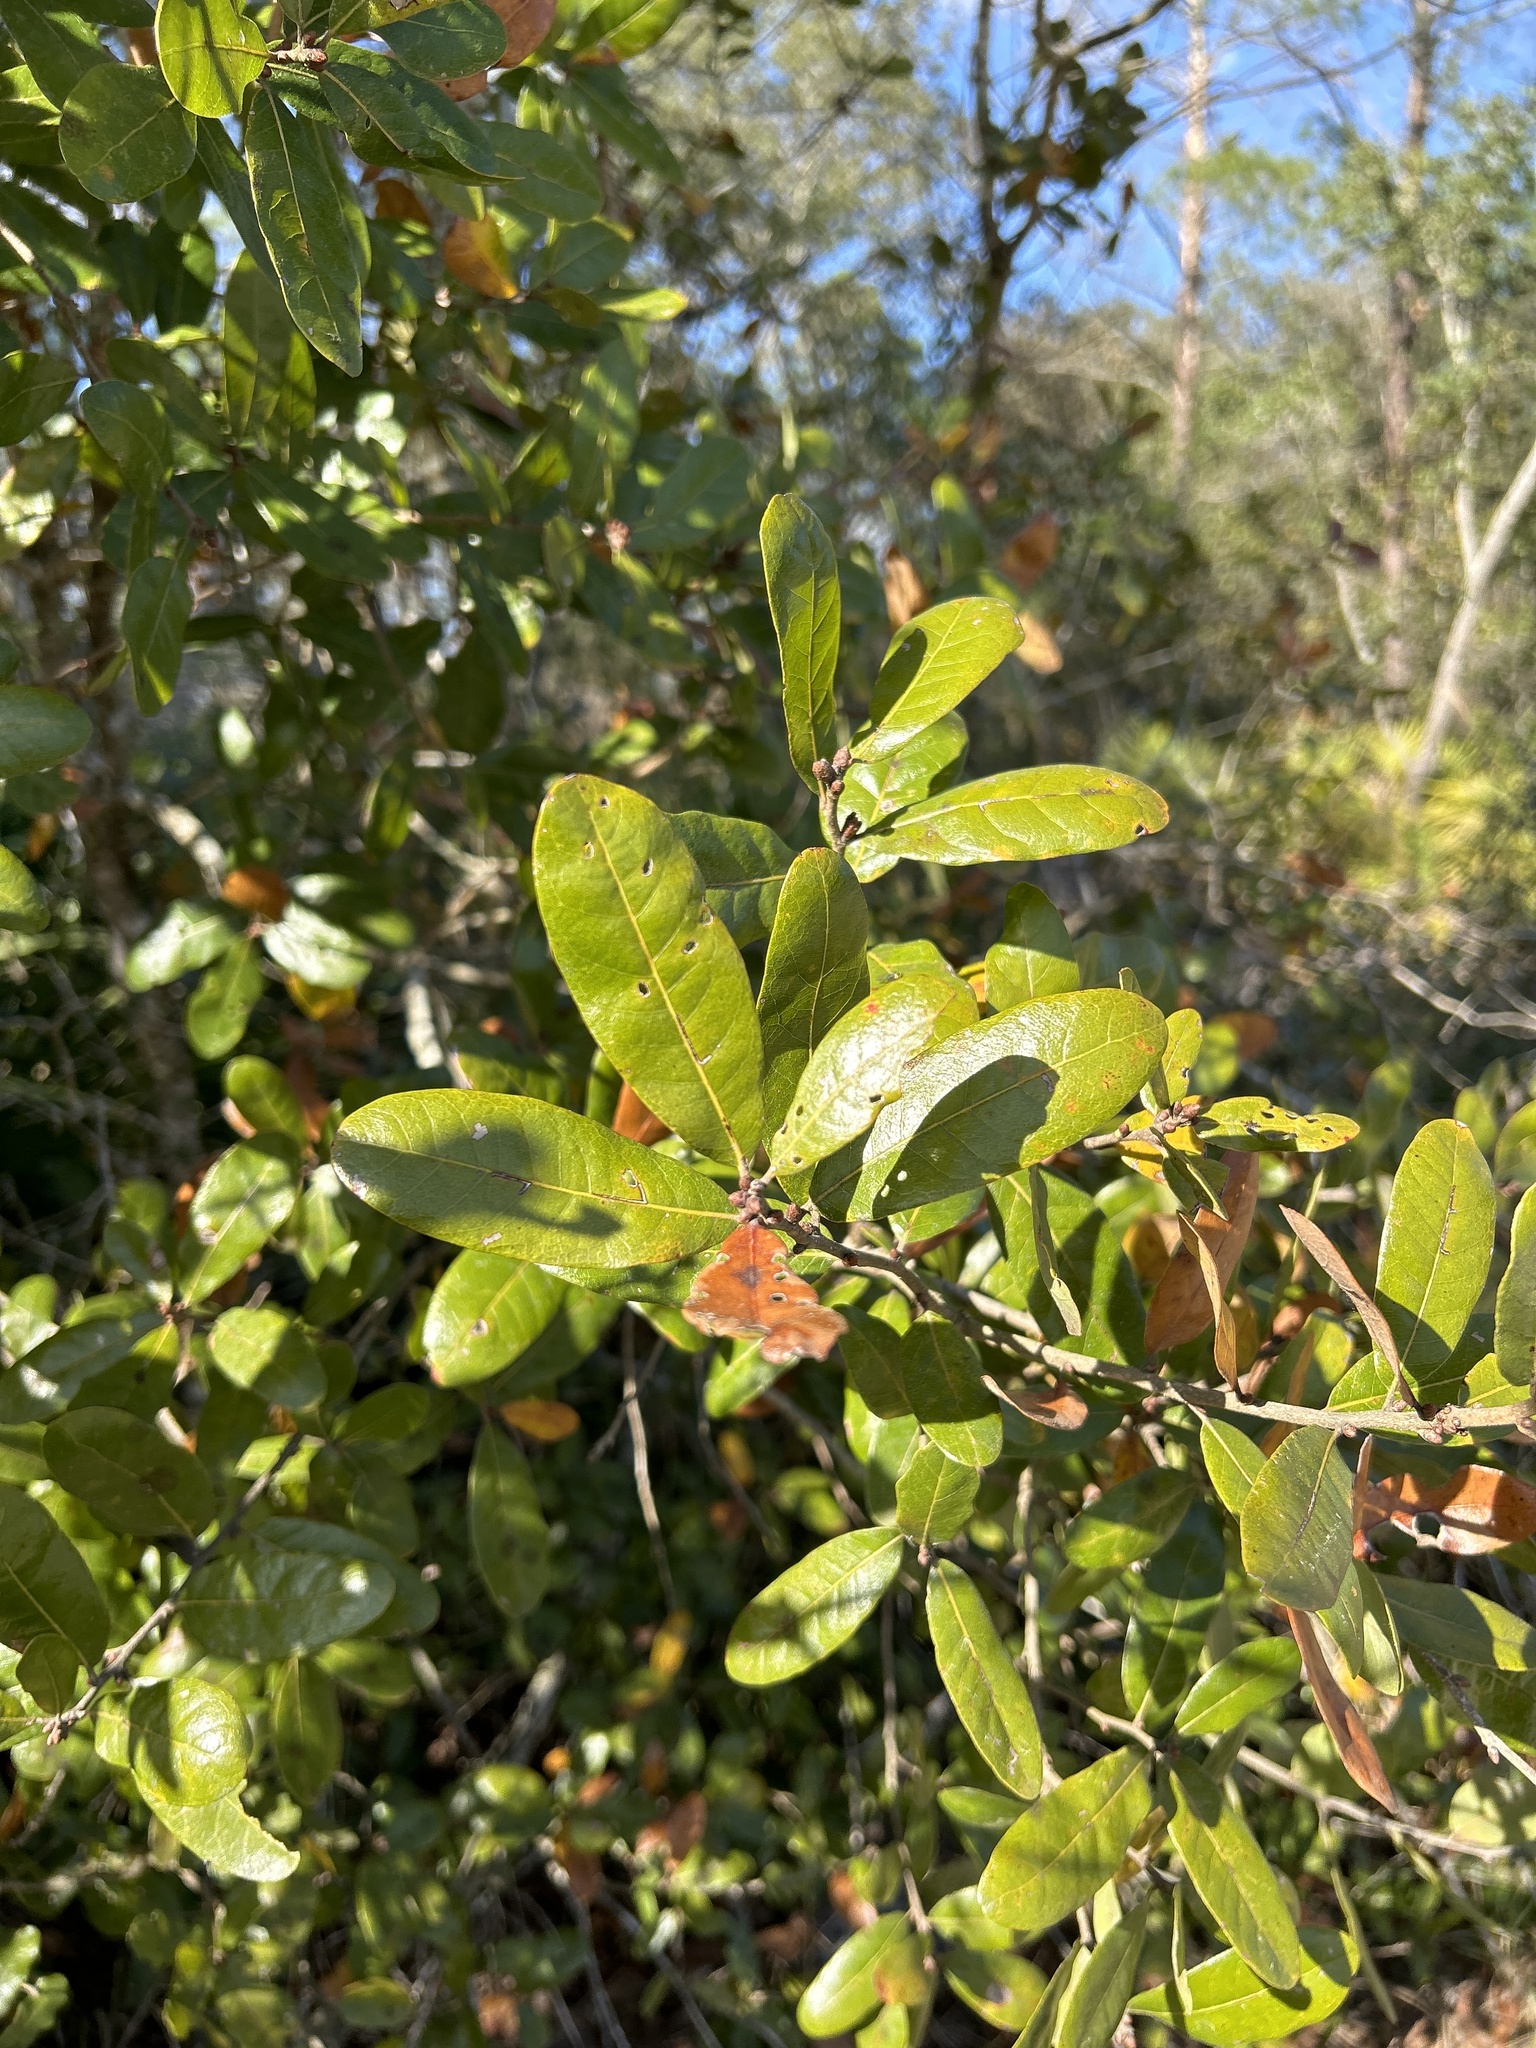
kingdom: Plantae
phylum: Tracheophyta
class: Magnoliopsida
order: Fagales
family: Fagaceae
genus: Quercus
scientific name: Quercus chapmanii
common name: Chapman oak
